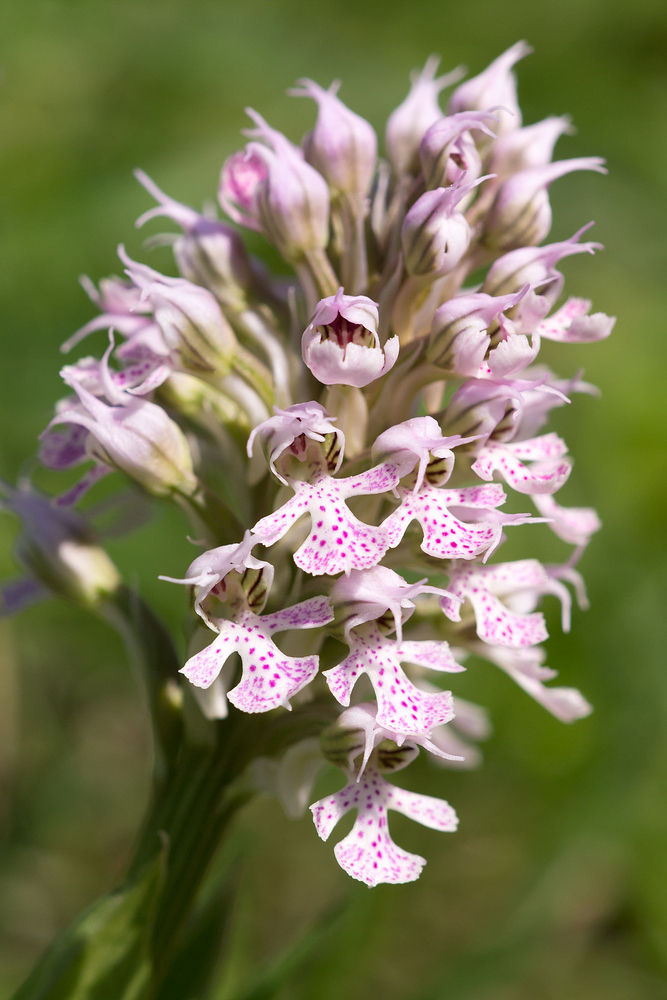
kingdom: Plantae
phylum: Tracheophyta
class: Liliopsida
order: Asparagales
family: Orchidaceae
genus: Neotinea
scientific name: Neotinea conica
